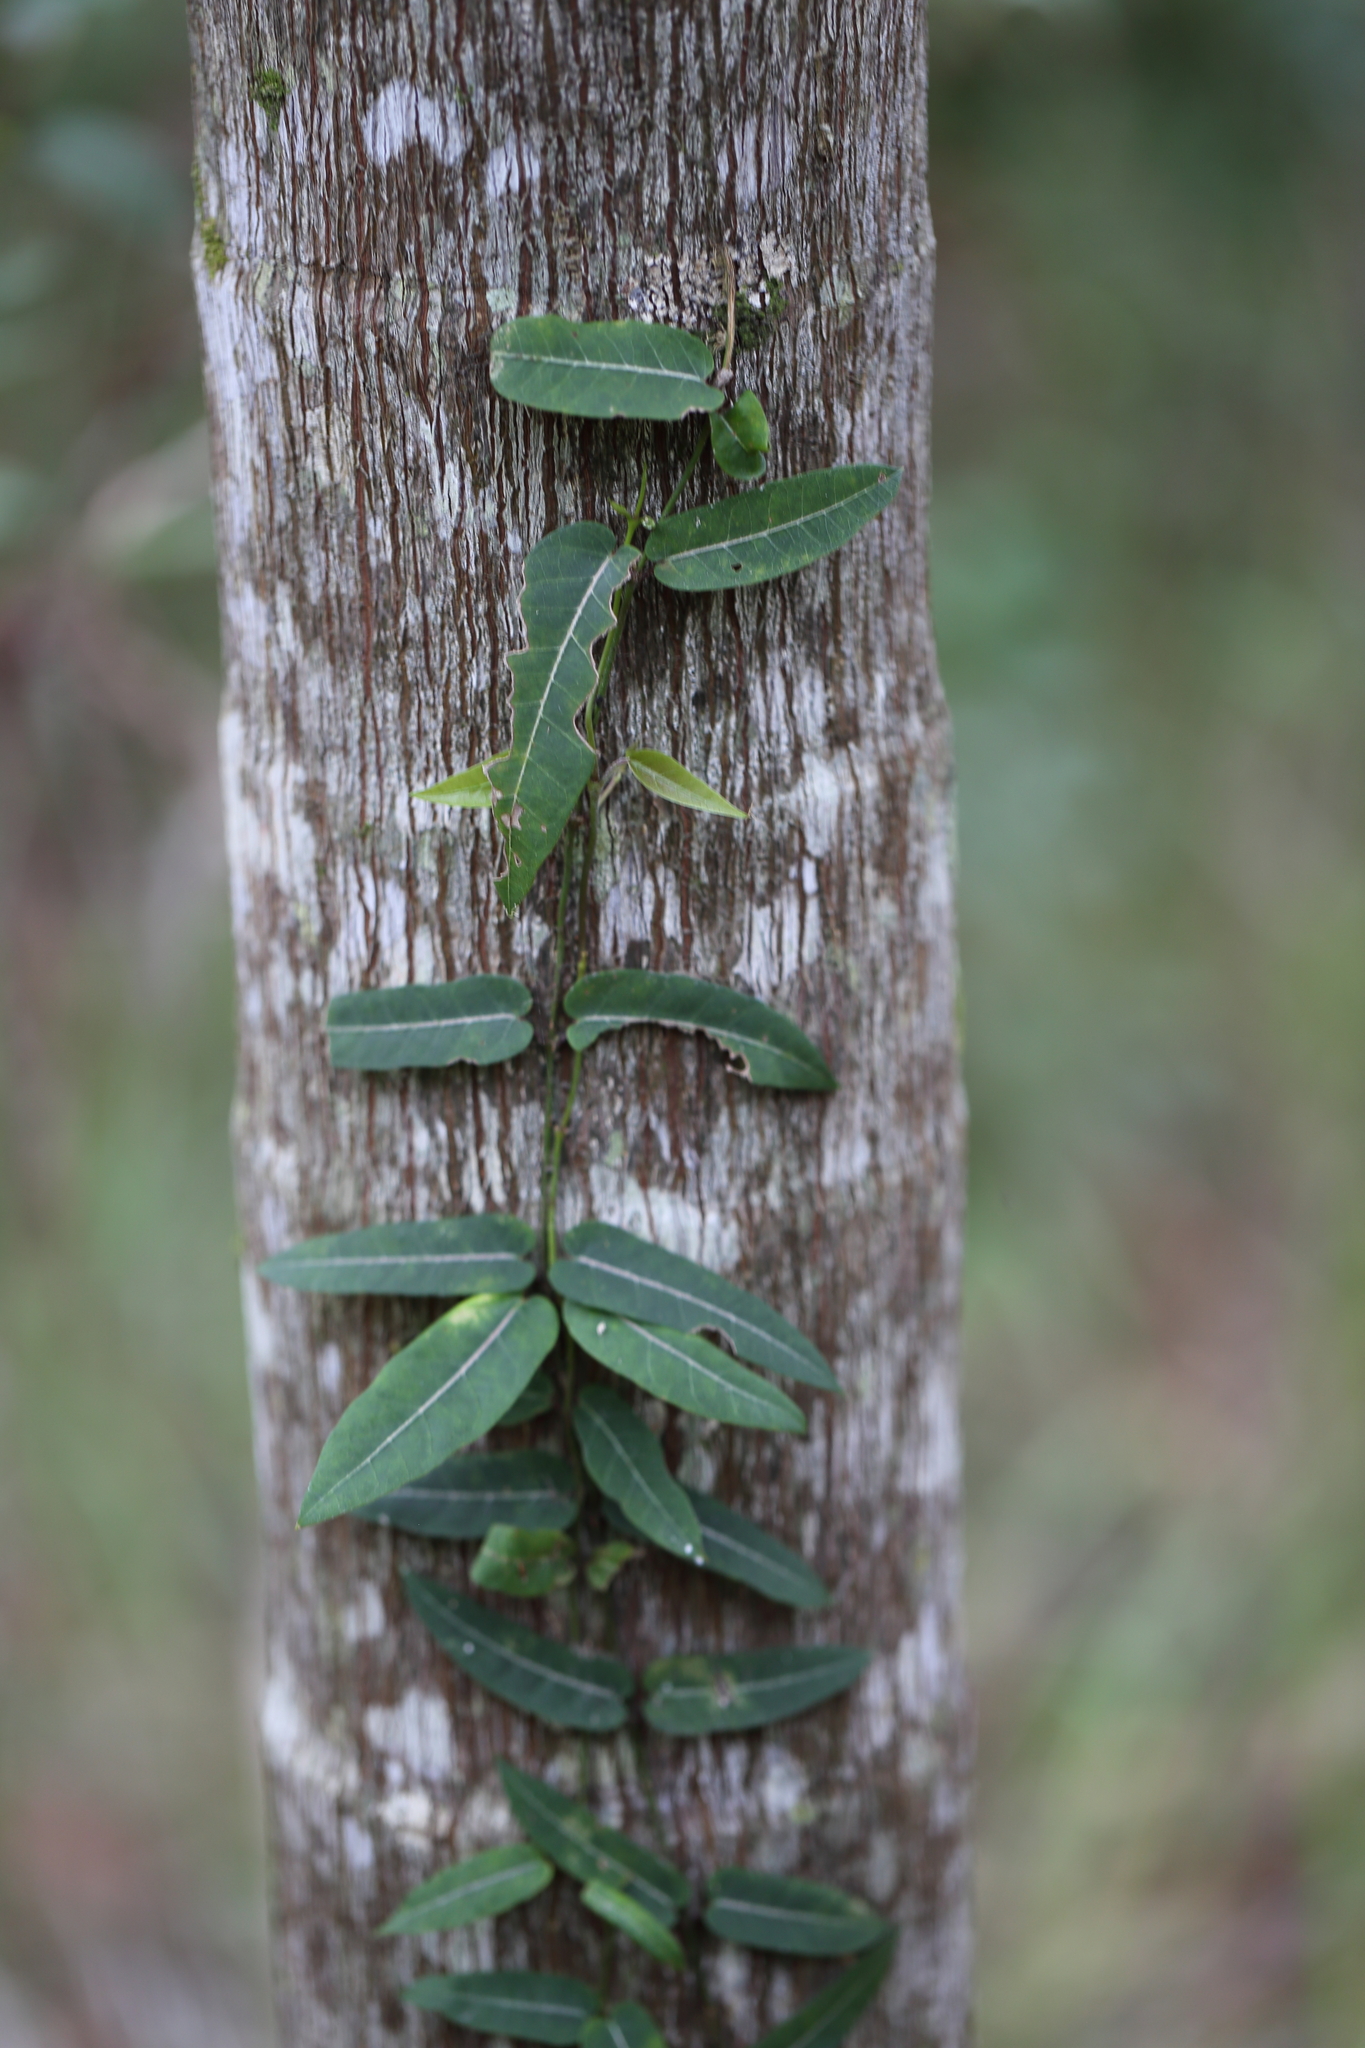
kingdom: Plantae
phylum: Tracheophyta
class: Magnoliopsida
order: Gentianales
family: Apocynaceae
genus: Parsonsia
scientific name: Parsonsia straminea
